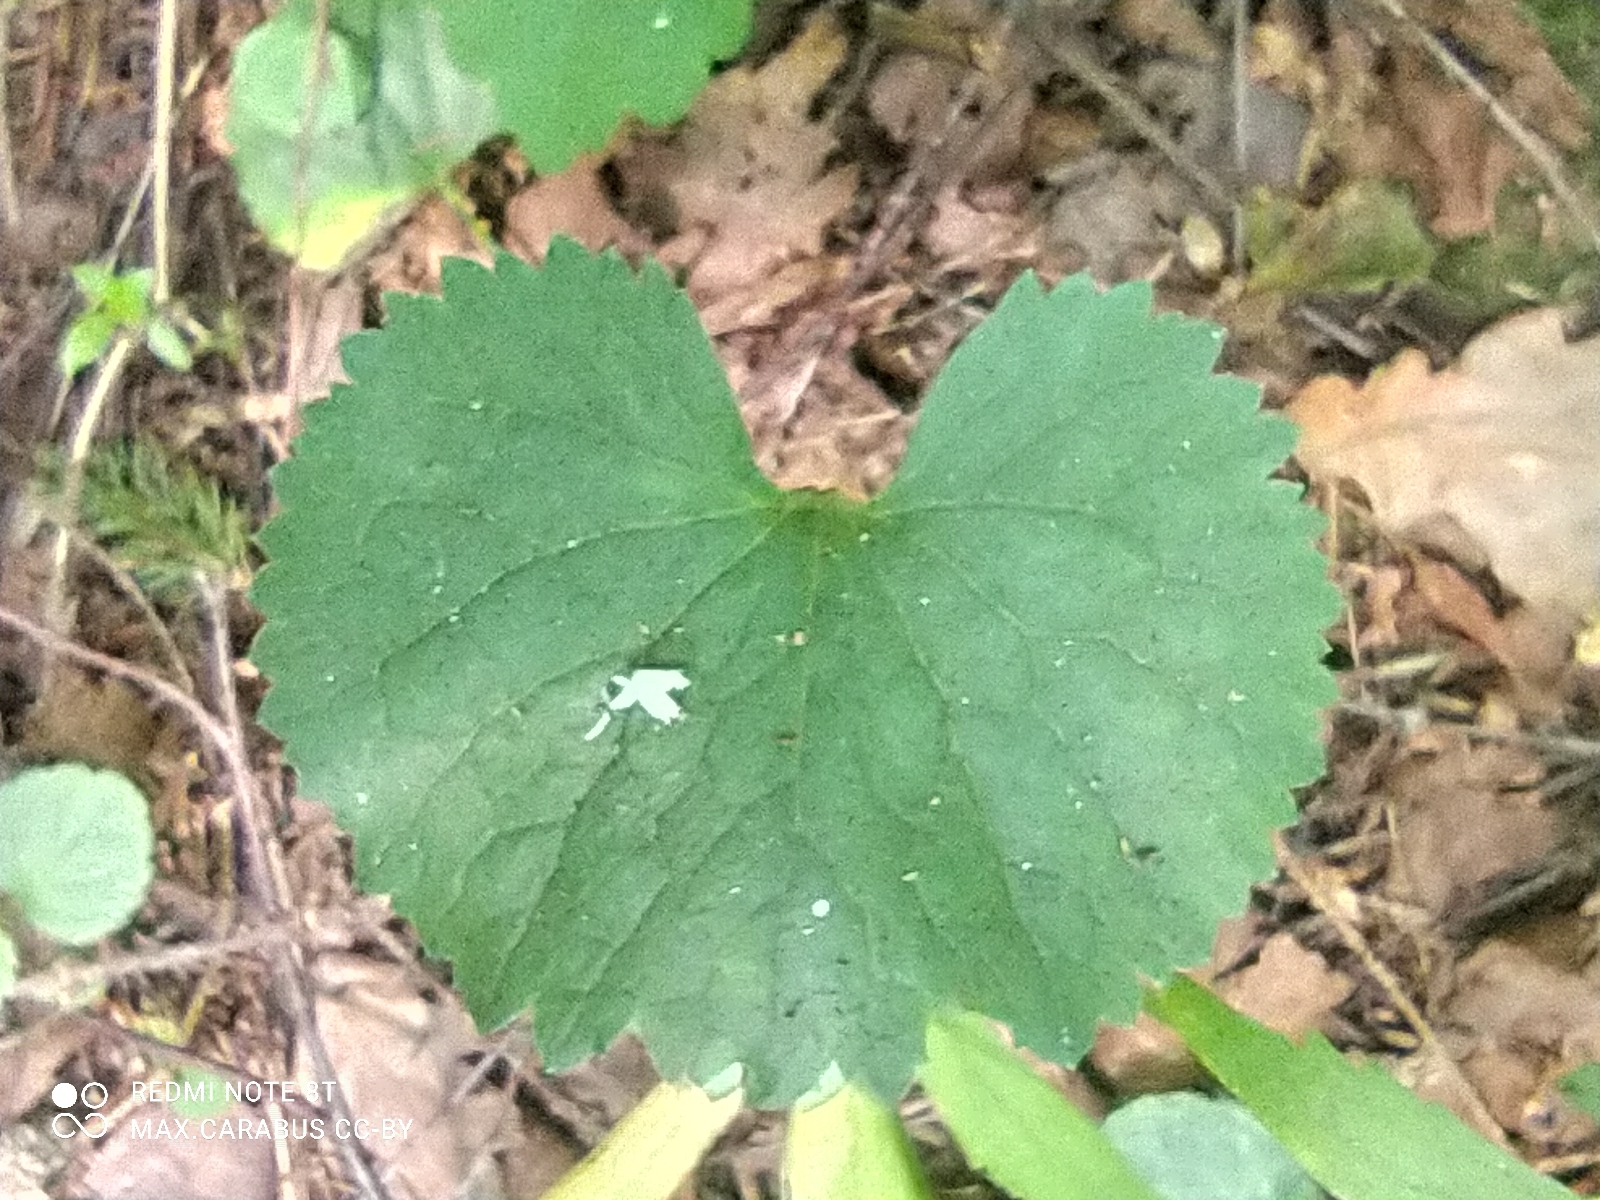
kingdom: Plantae
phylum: Tracheophyta
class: Magnoliopsida
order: Ranunculales
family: Ranunculaceae
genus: Ranunculus
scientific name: Ranunculus cassubicus
